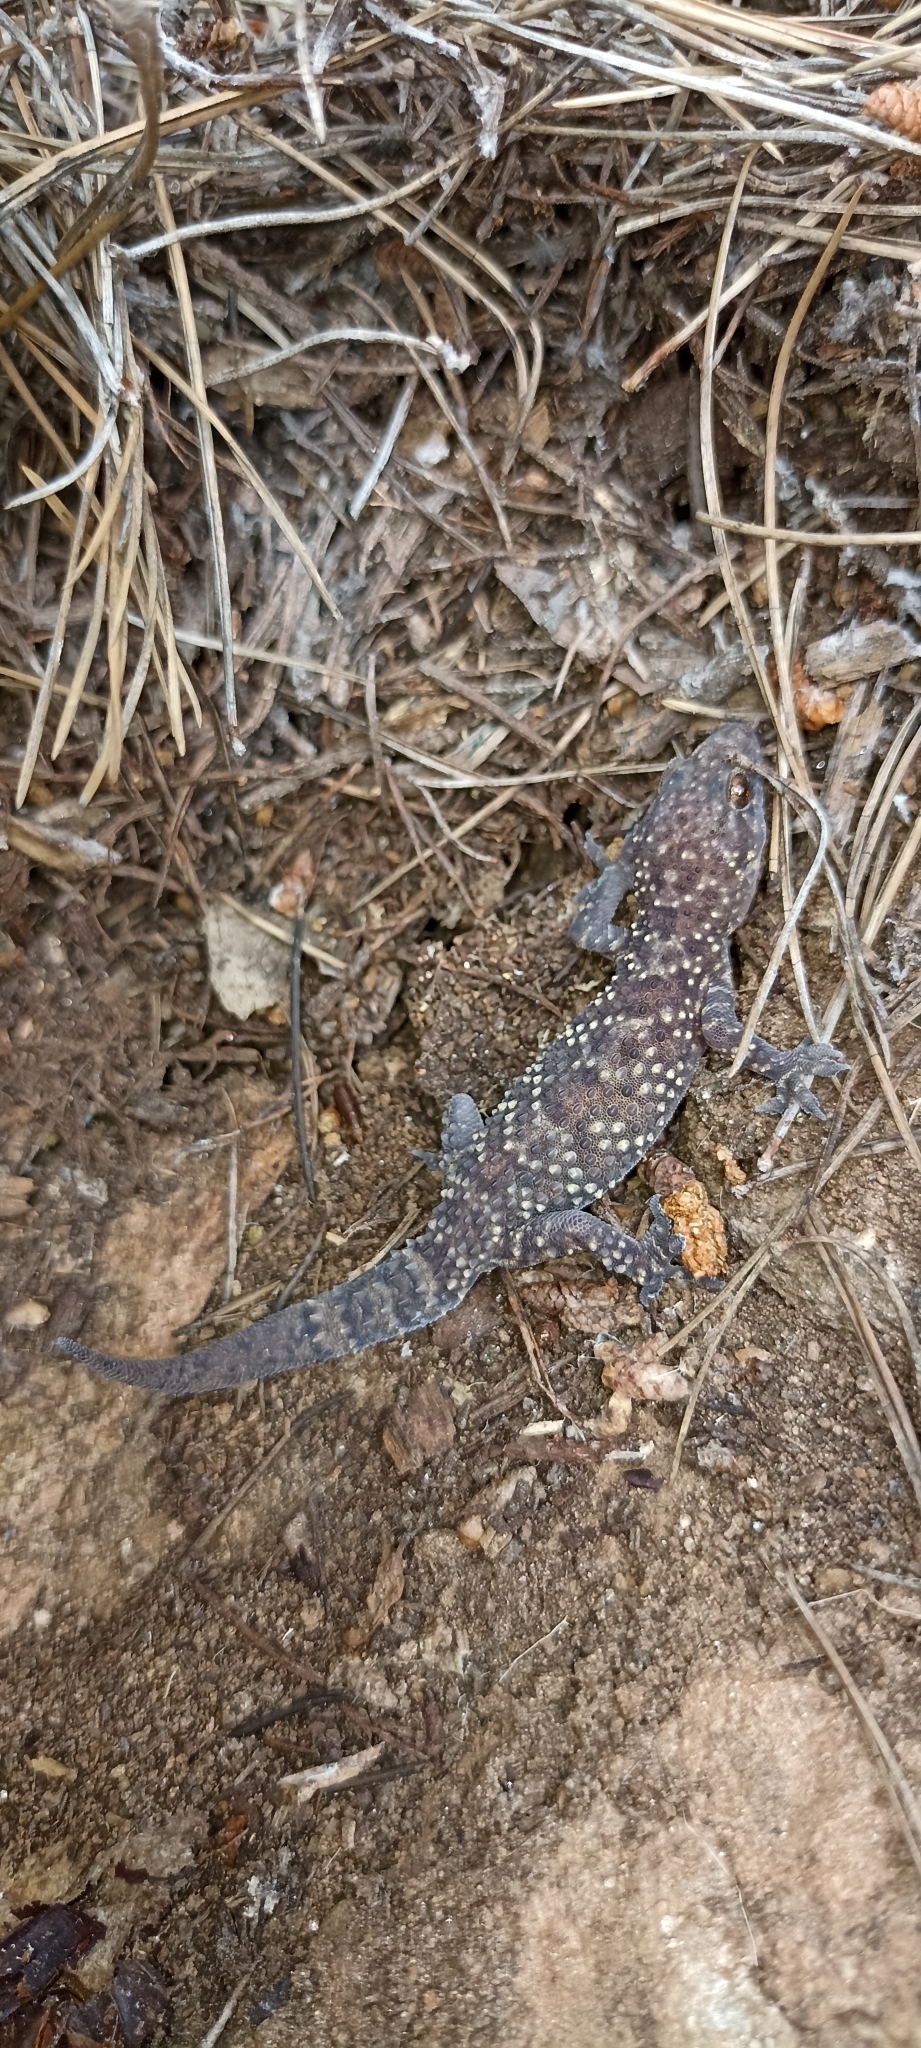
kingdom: Animalia
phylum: Chordata
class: Squamata
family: Gekkonidae
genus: Hemidactylus
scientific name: Hemidactylus turcicus
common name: Turkish gecko
